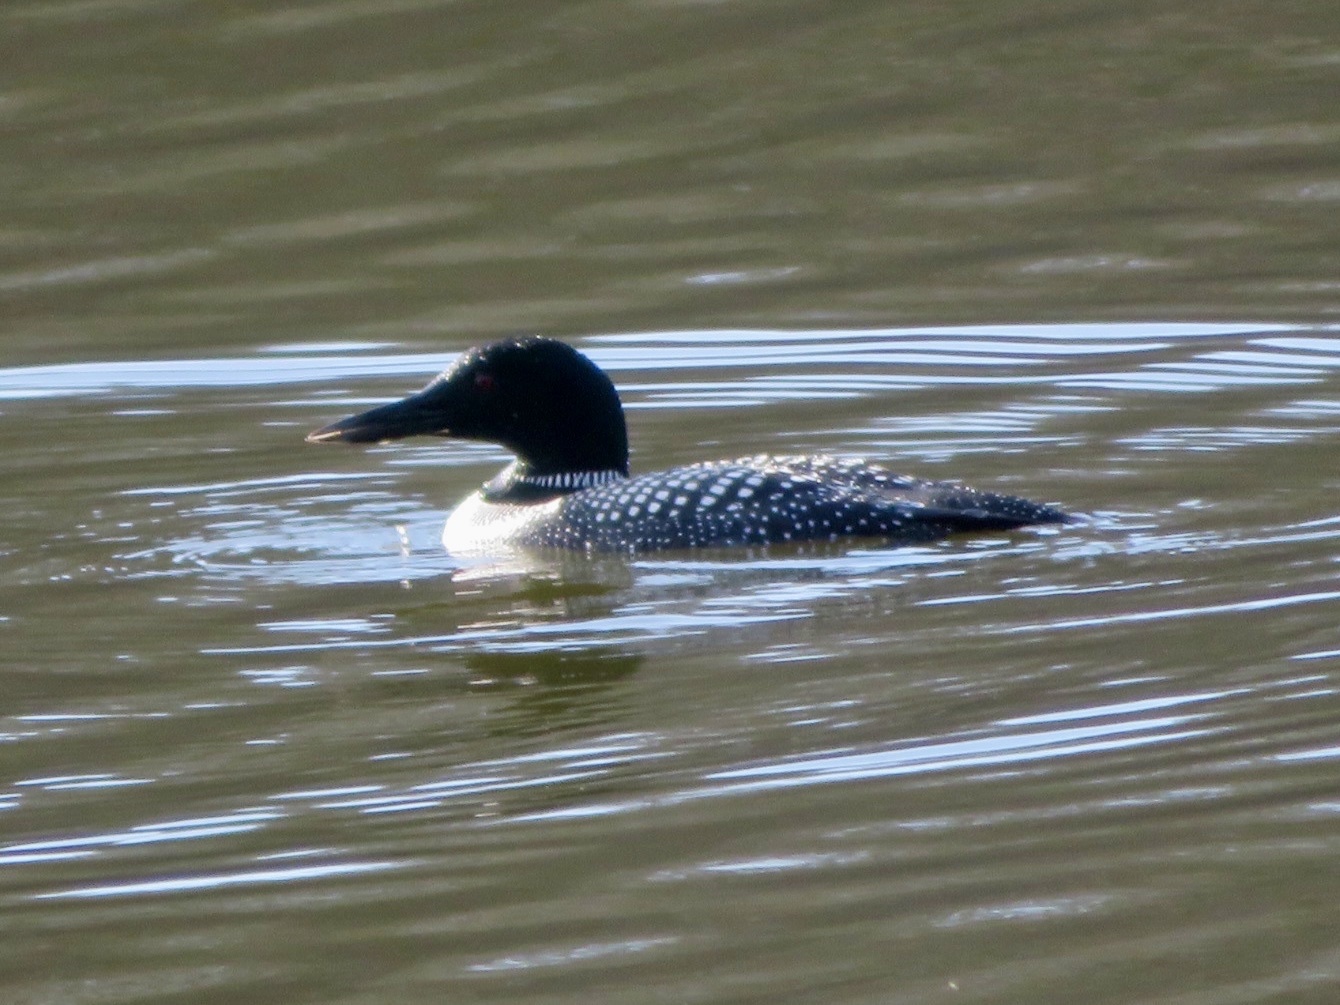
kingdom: Animalia
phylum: Chordata
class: Aves
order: Gaviiformes
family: Gaviidae
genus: Gavia
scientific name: Gavia immer
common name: Common loon
